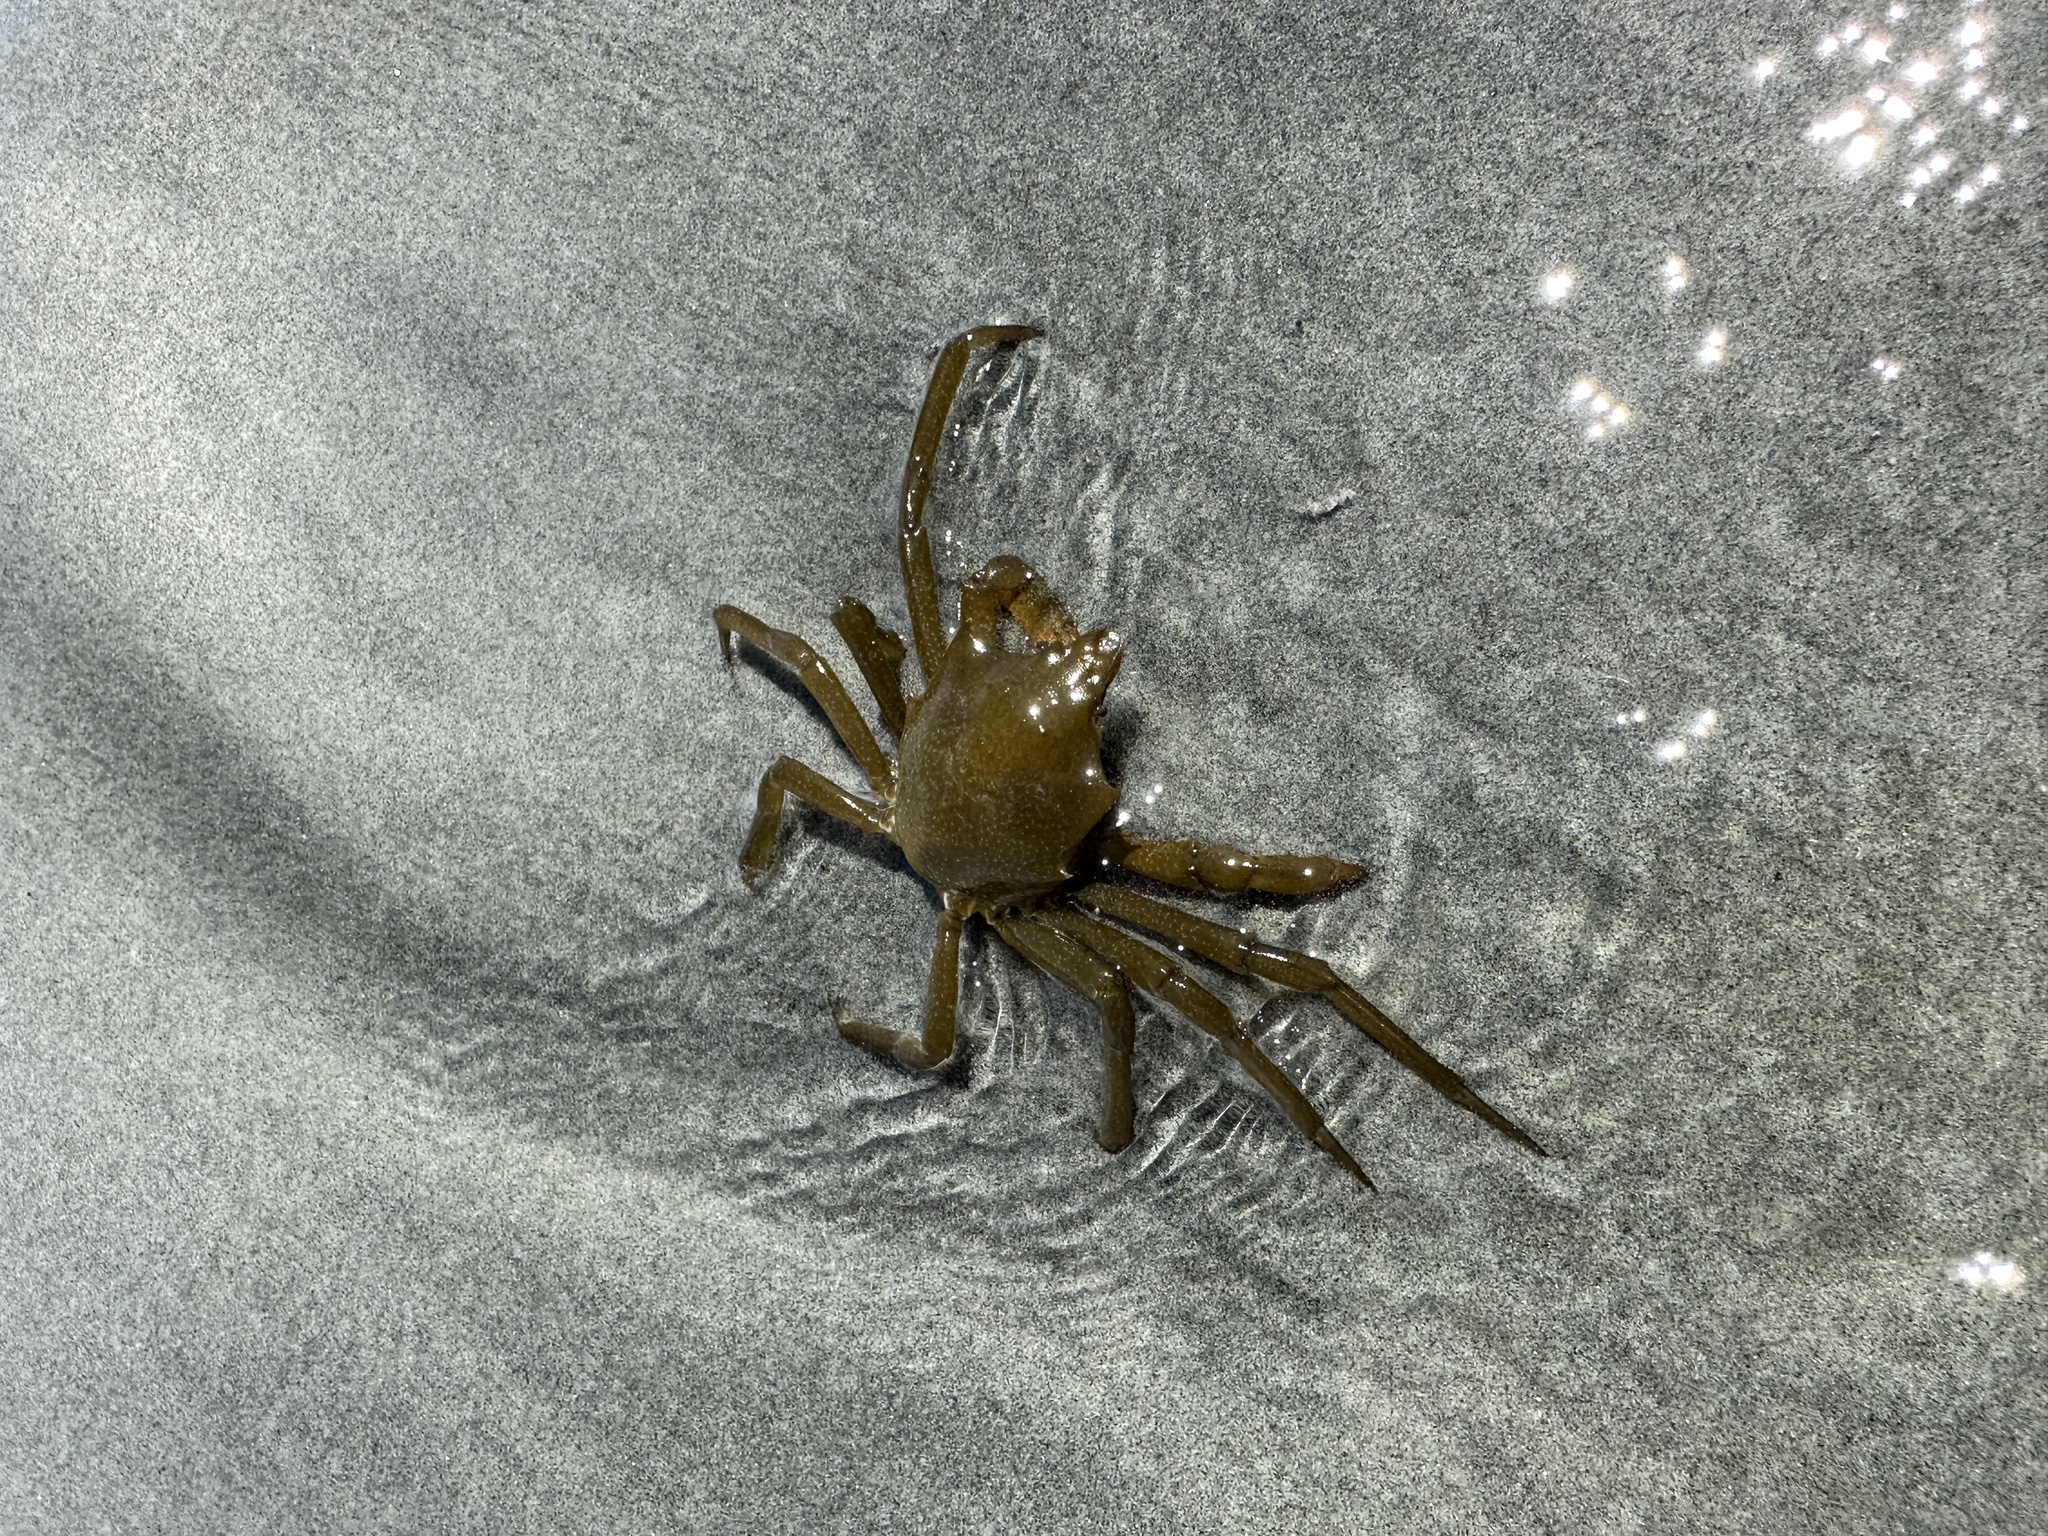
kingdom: Animalia
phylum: Arthropoda
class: Malacostraca
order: Decapoda
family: Epialtidae
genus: Pugettia
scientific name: Pugettia producta
